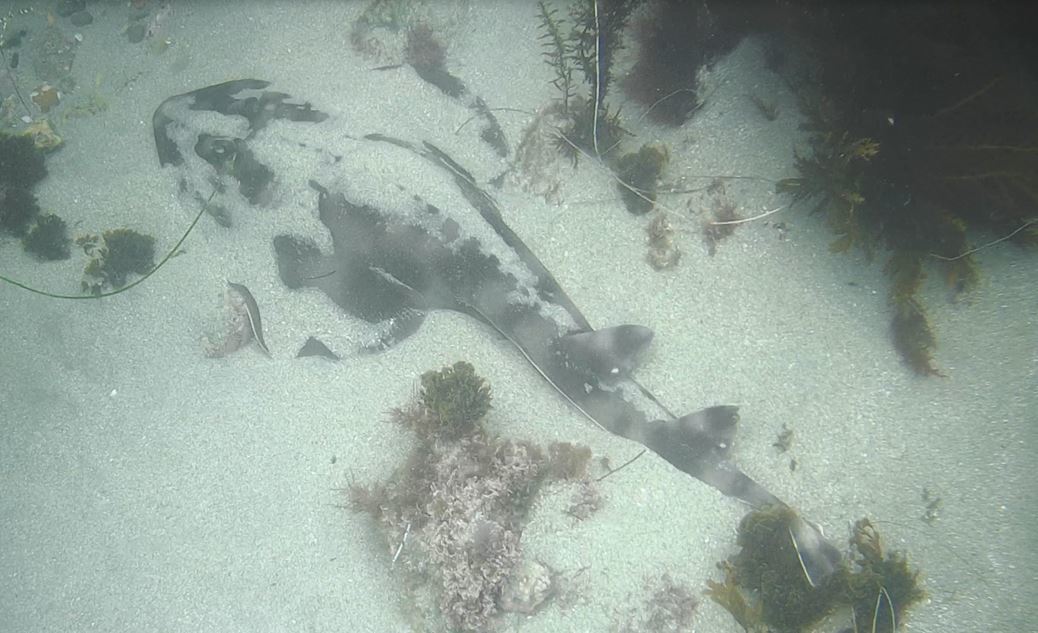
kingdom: Animalia
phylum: Chordata
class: Elasmobranchii
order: Rhinopristiformes
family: Rhinobatidae
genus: Zapteryx
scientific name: Zapteryx exasperata
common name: Banded guitarfish
